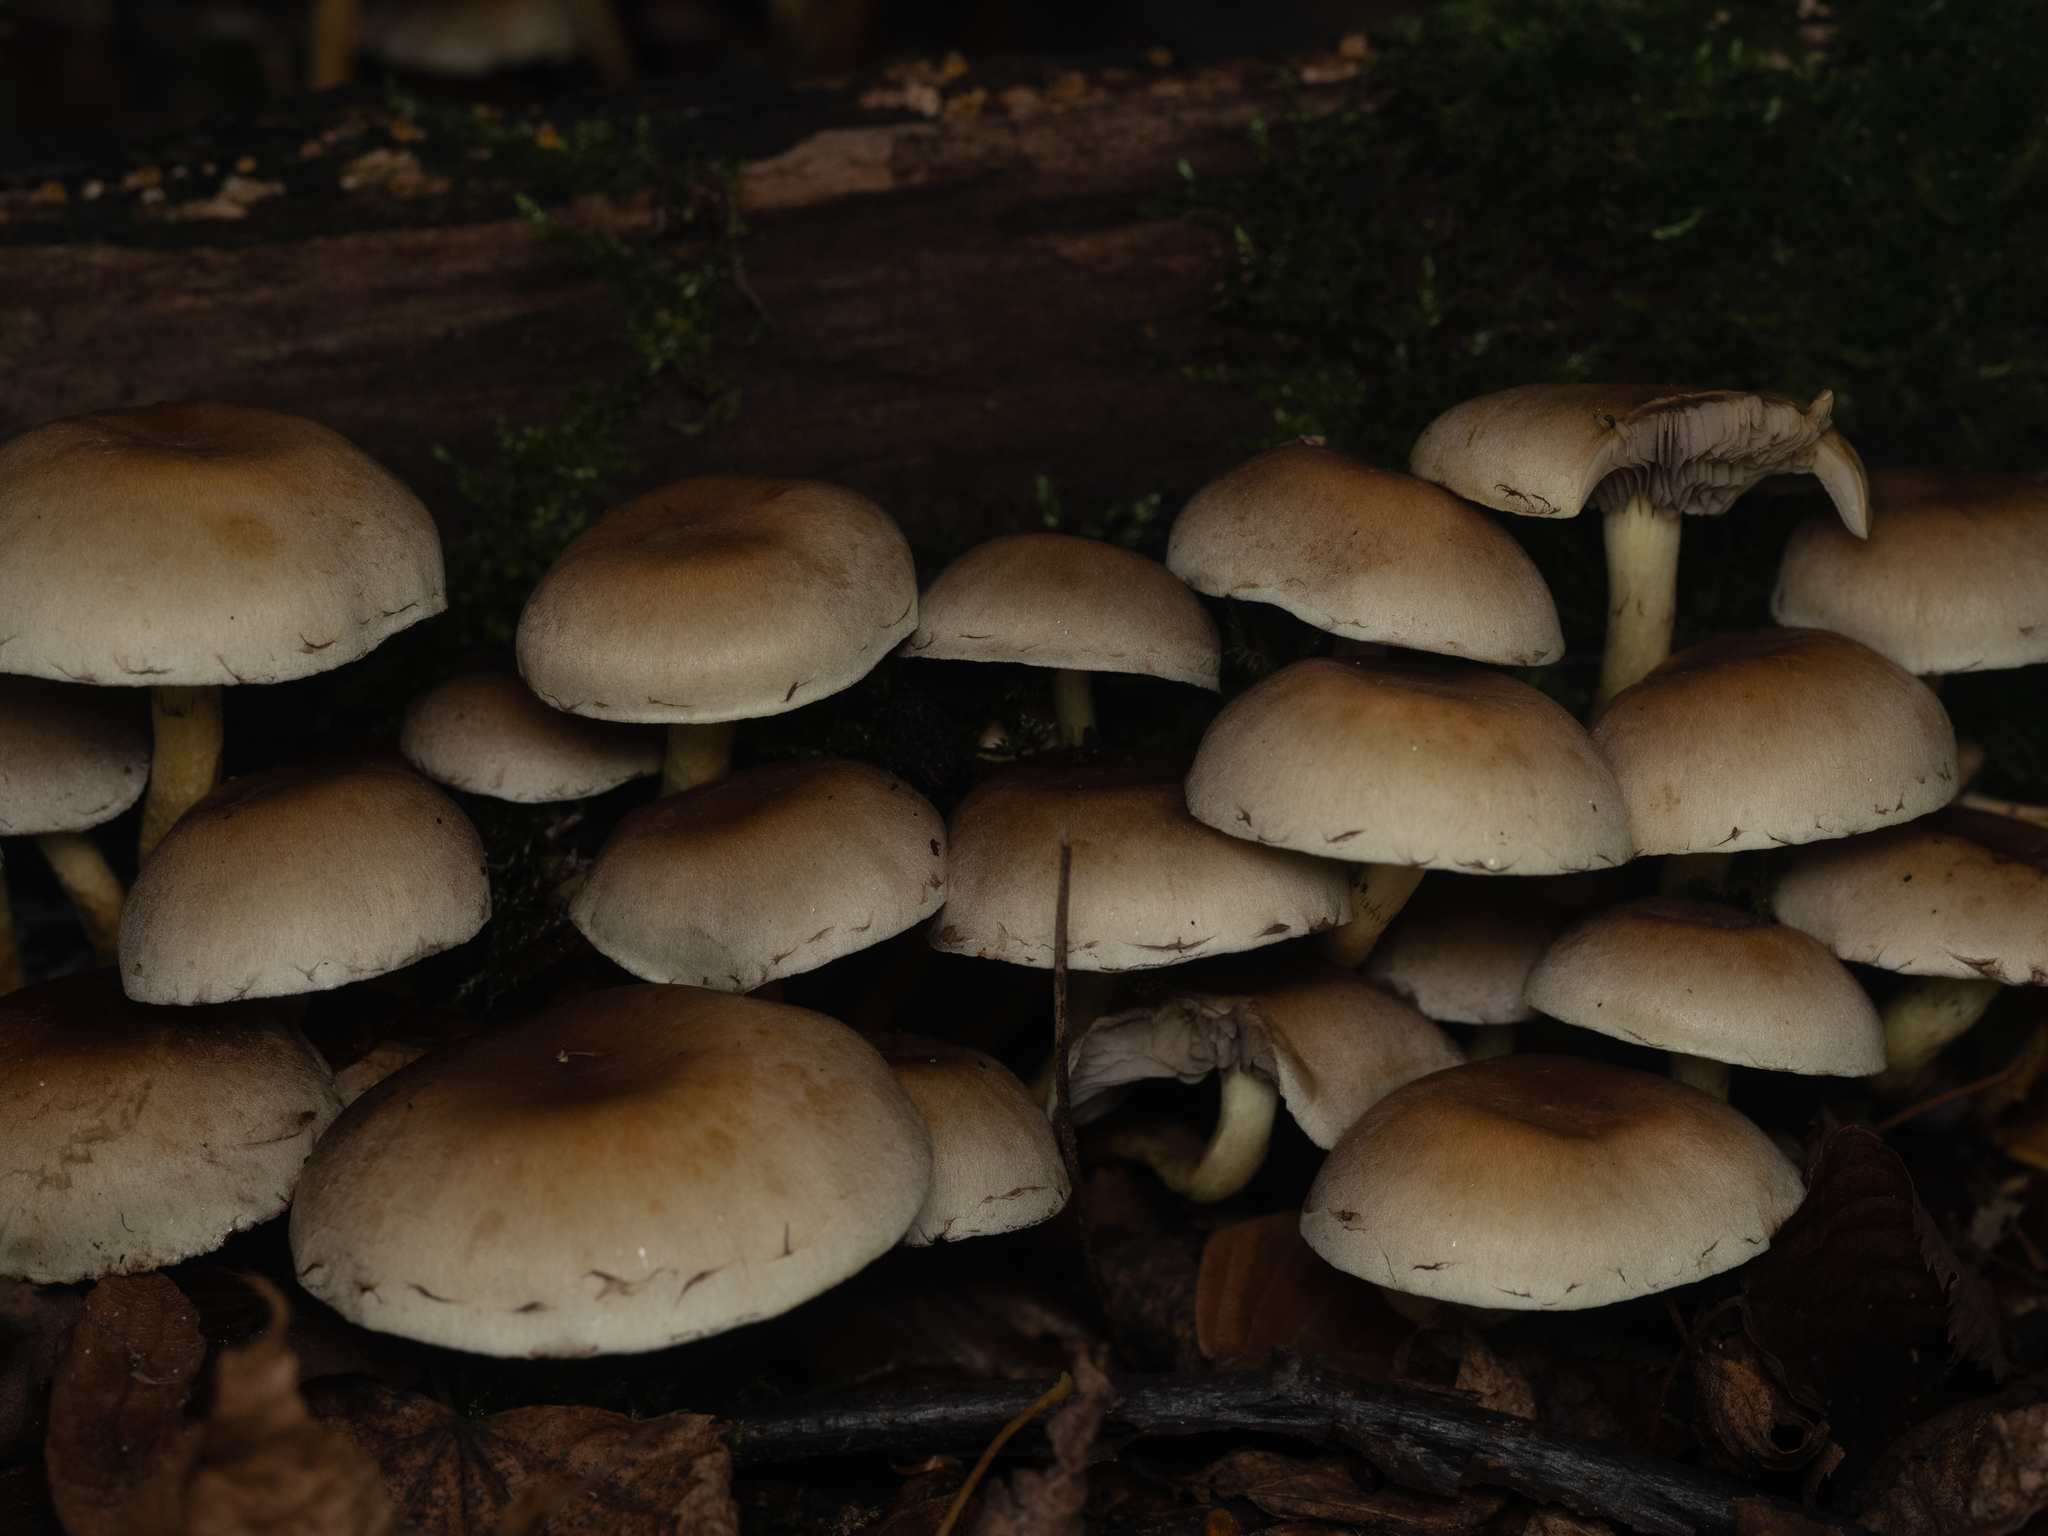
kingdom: Fungi
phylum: Basidiomycota
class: Agaricomycetes
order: Agaricales
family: Strophariaceae
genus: Hypholoma
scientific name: Hypholoma fasciculare
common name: Sulphur tuft
